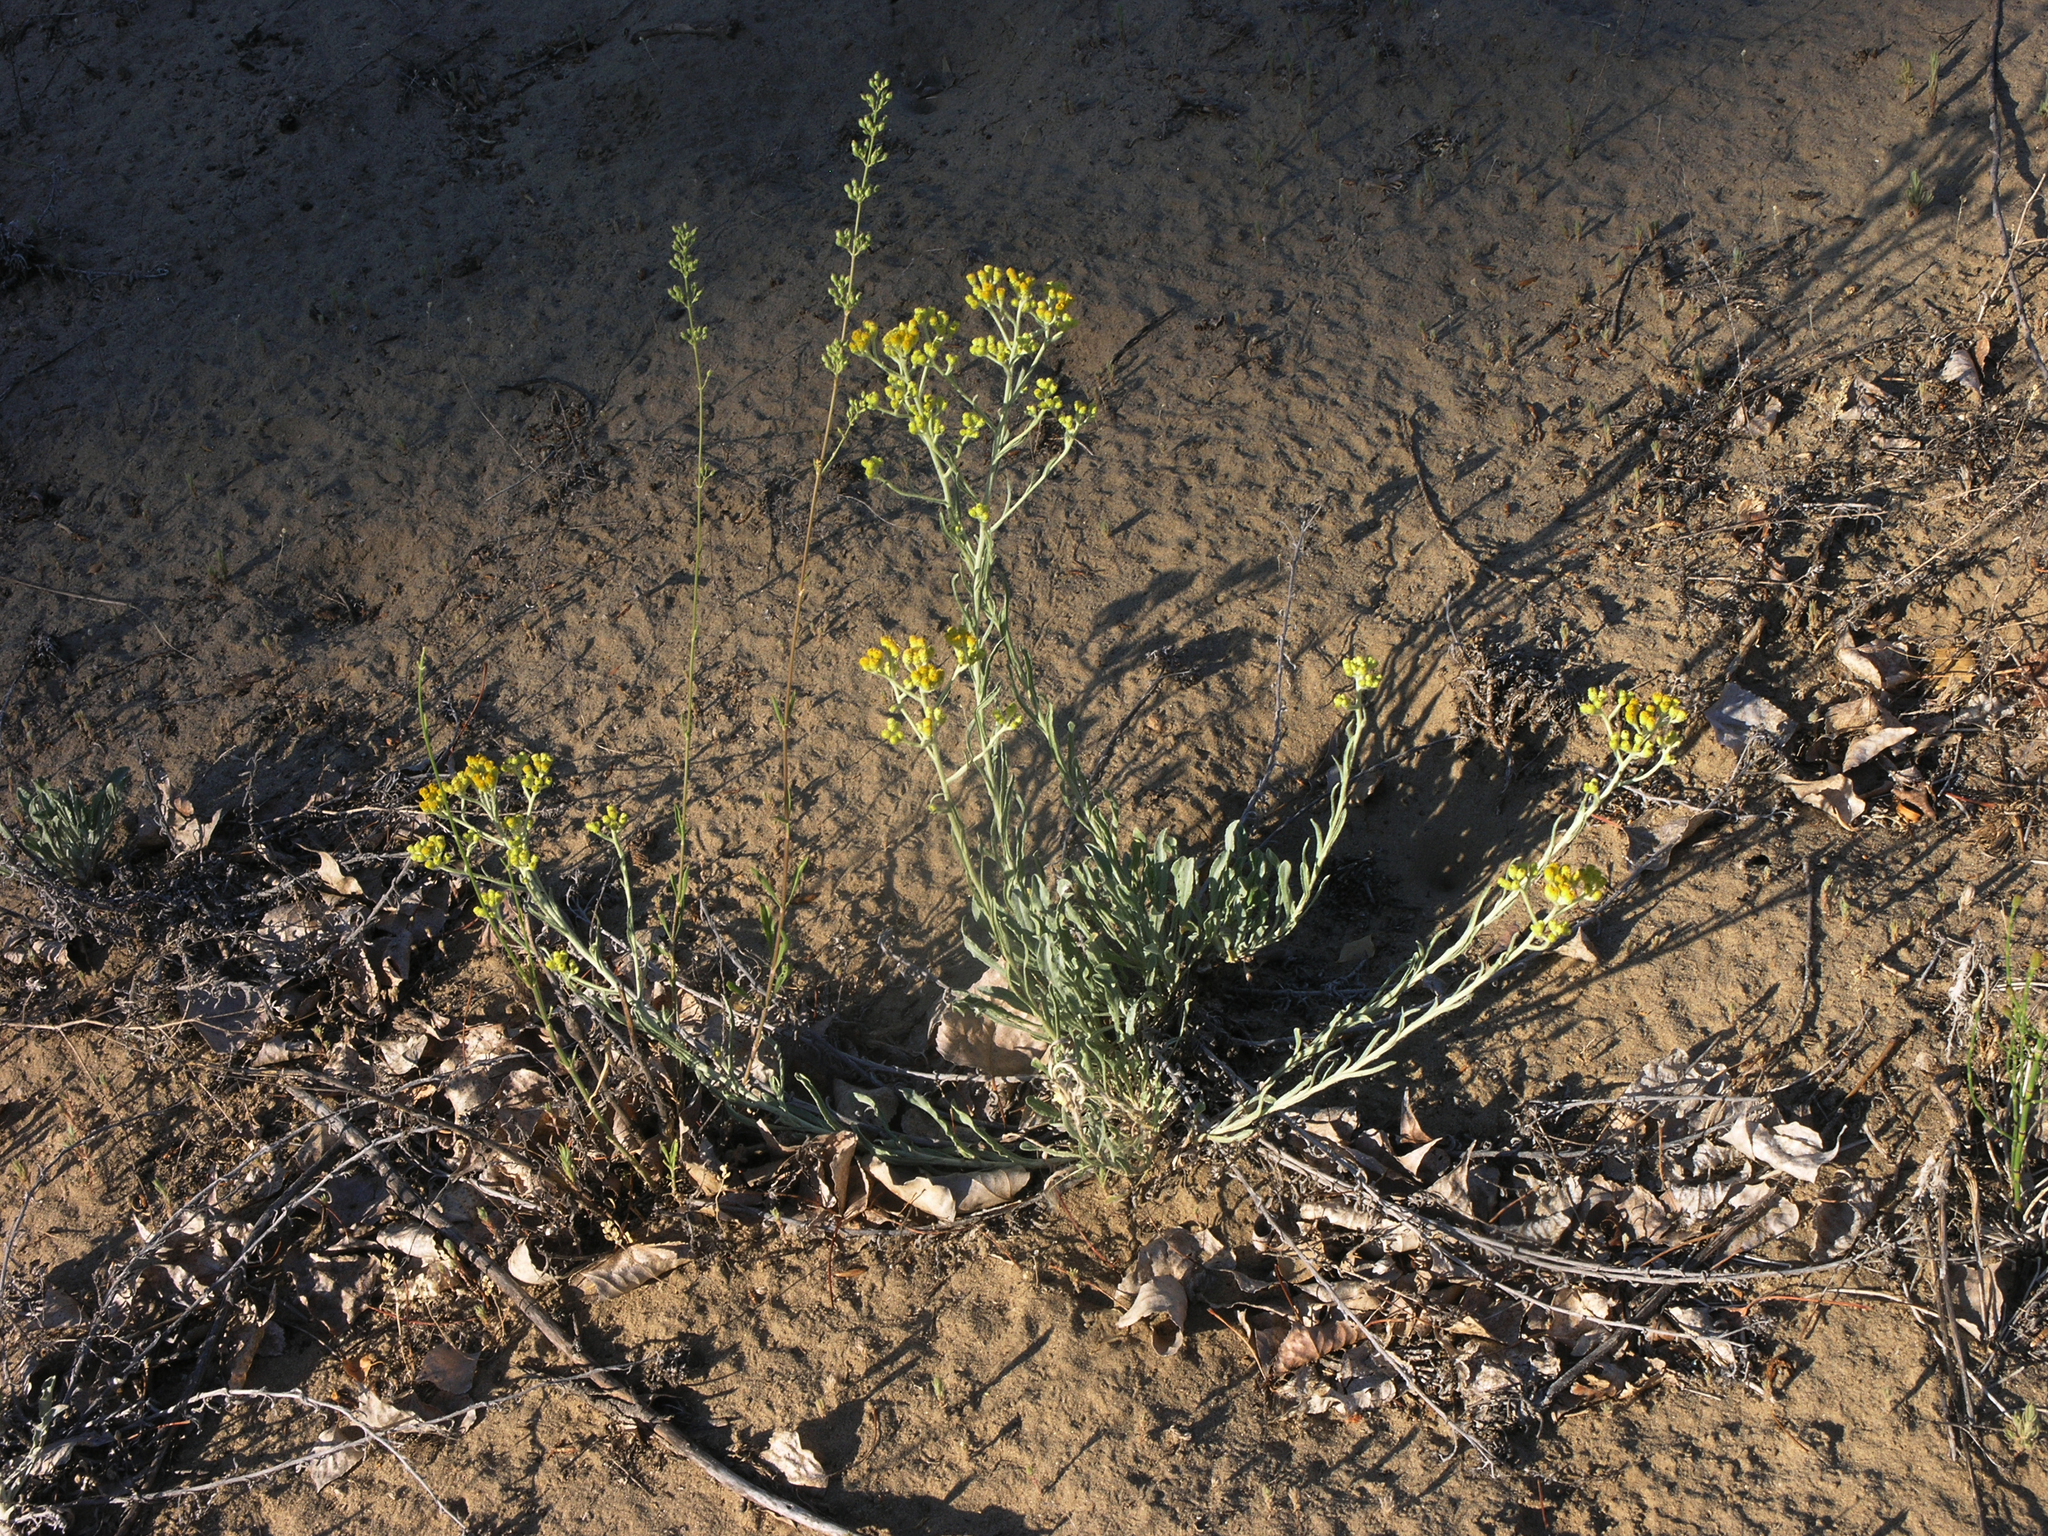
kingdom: Plantae
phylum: Tracheophyta
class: Magnoliopsida
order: Asterales
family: Asteraceae
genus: Helichrysum
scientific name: Helichrysum arenarium
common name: Strawflower
